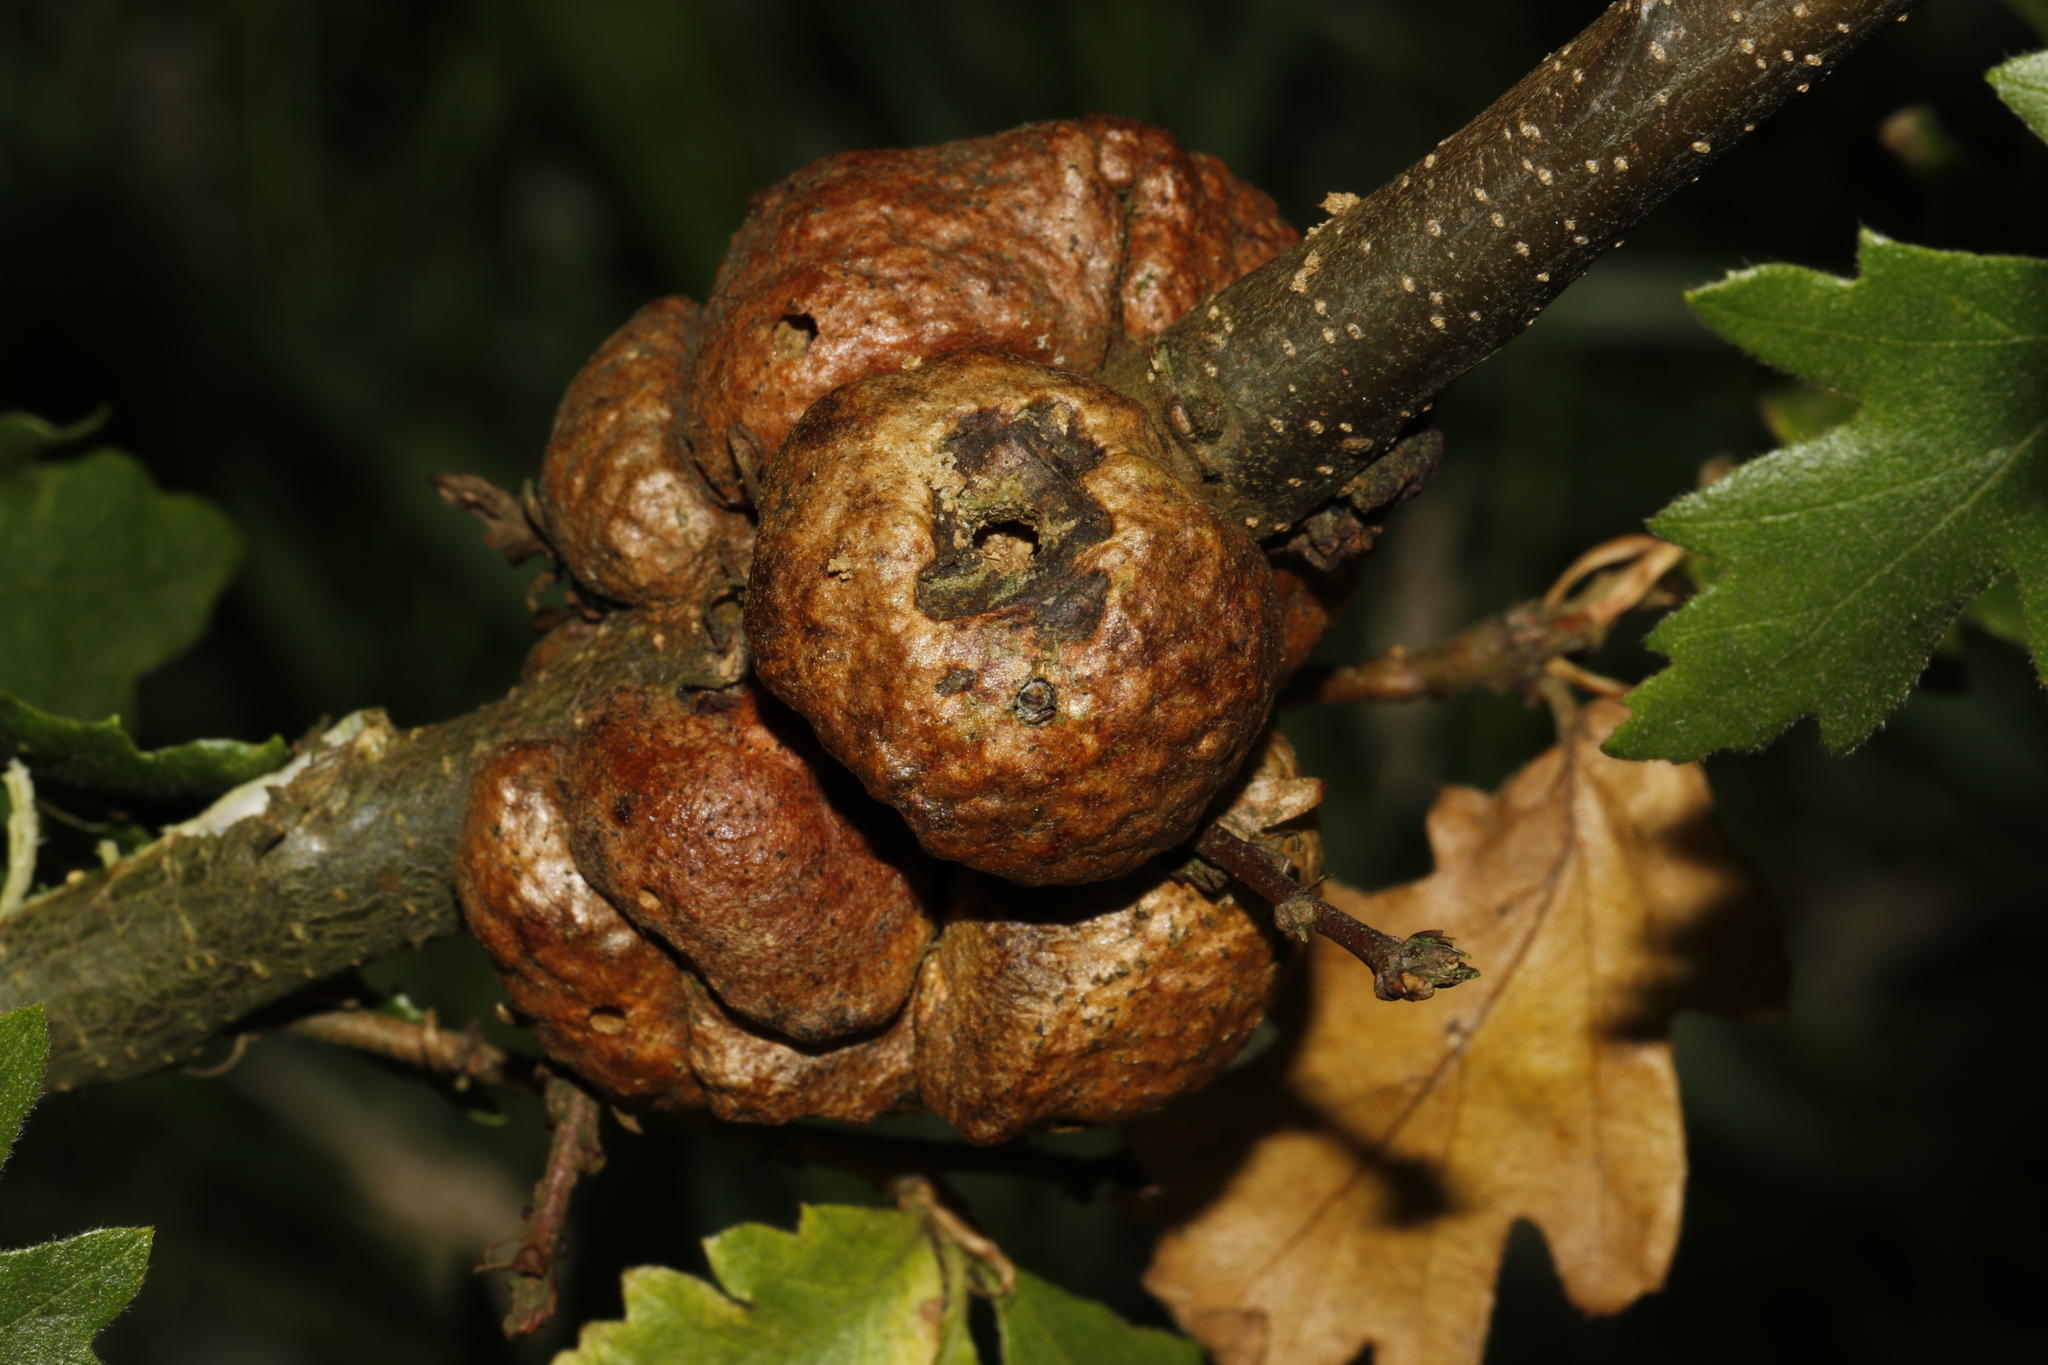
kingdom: Animalia
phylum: Arthropoda
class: Insecta
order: Hymenoptera
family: Cynipidae
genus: Aphelonyx
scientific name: Aphelonyx cerricola
